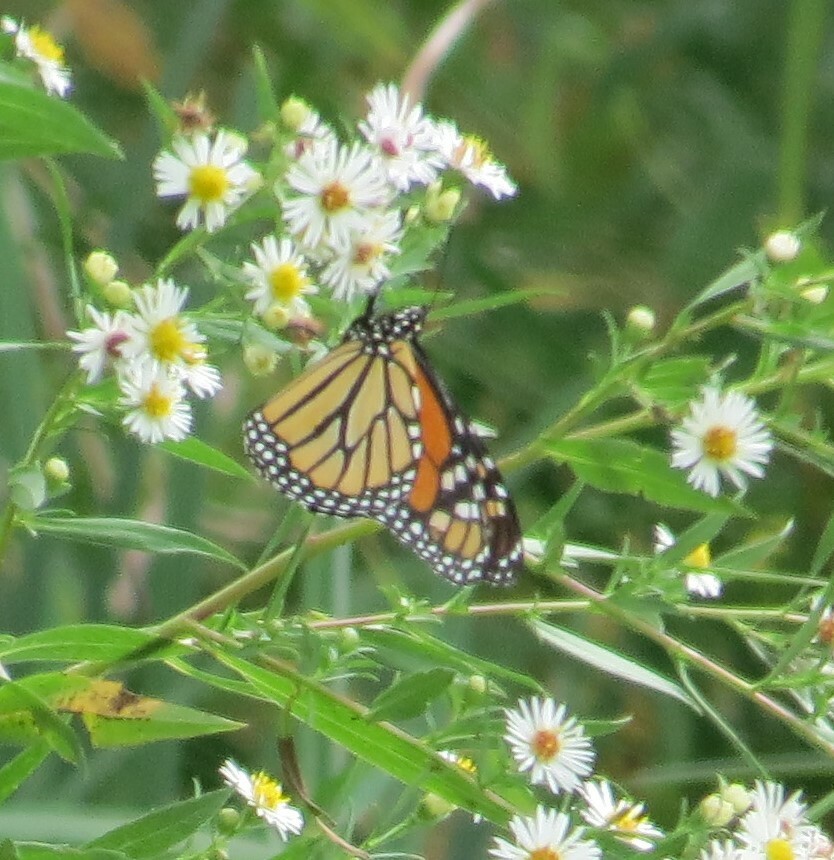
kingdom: Animalia
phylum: Arthropoda
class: Insecta
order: Lepidoptera
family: Nymphalidae
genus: Danaus
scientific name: Danaus plexippus
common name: Monarch
